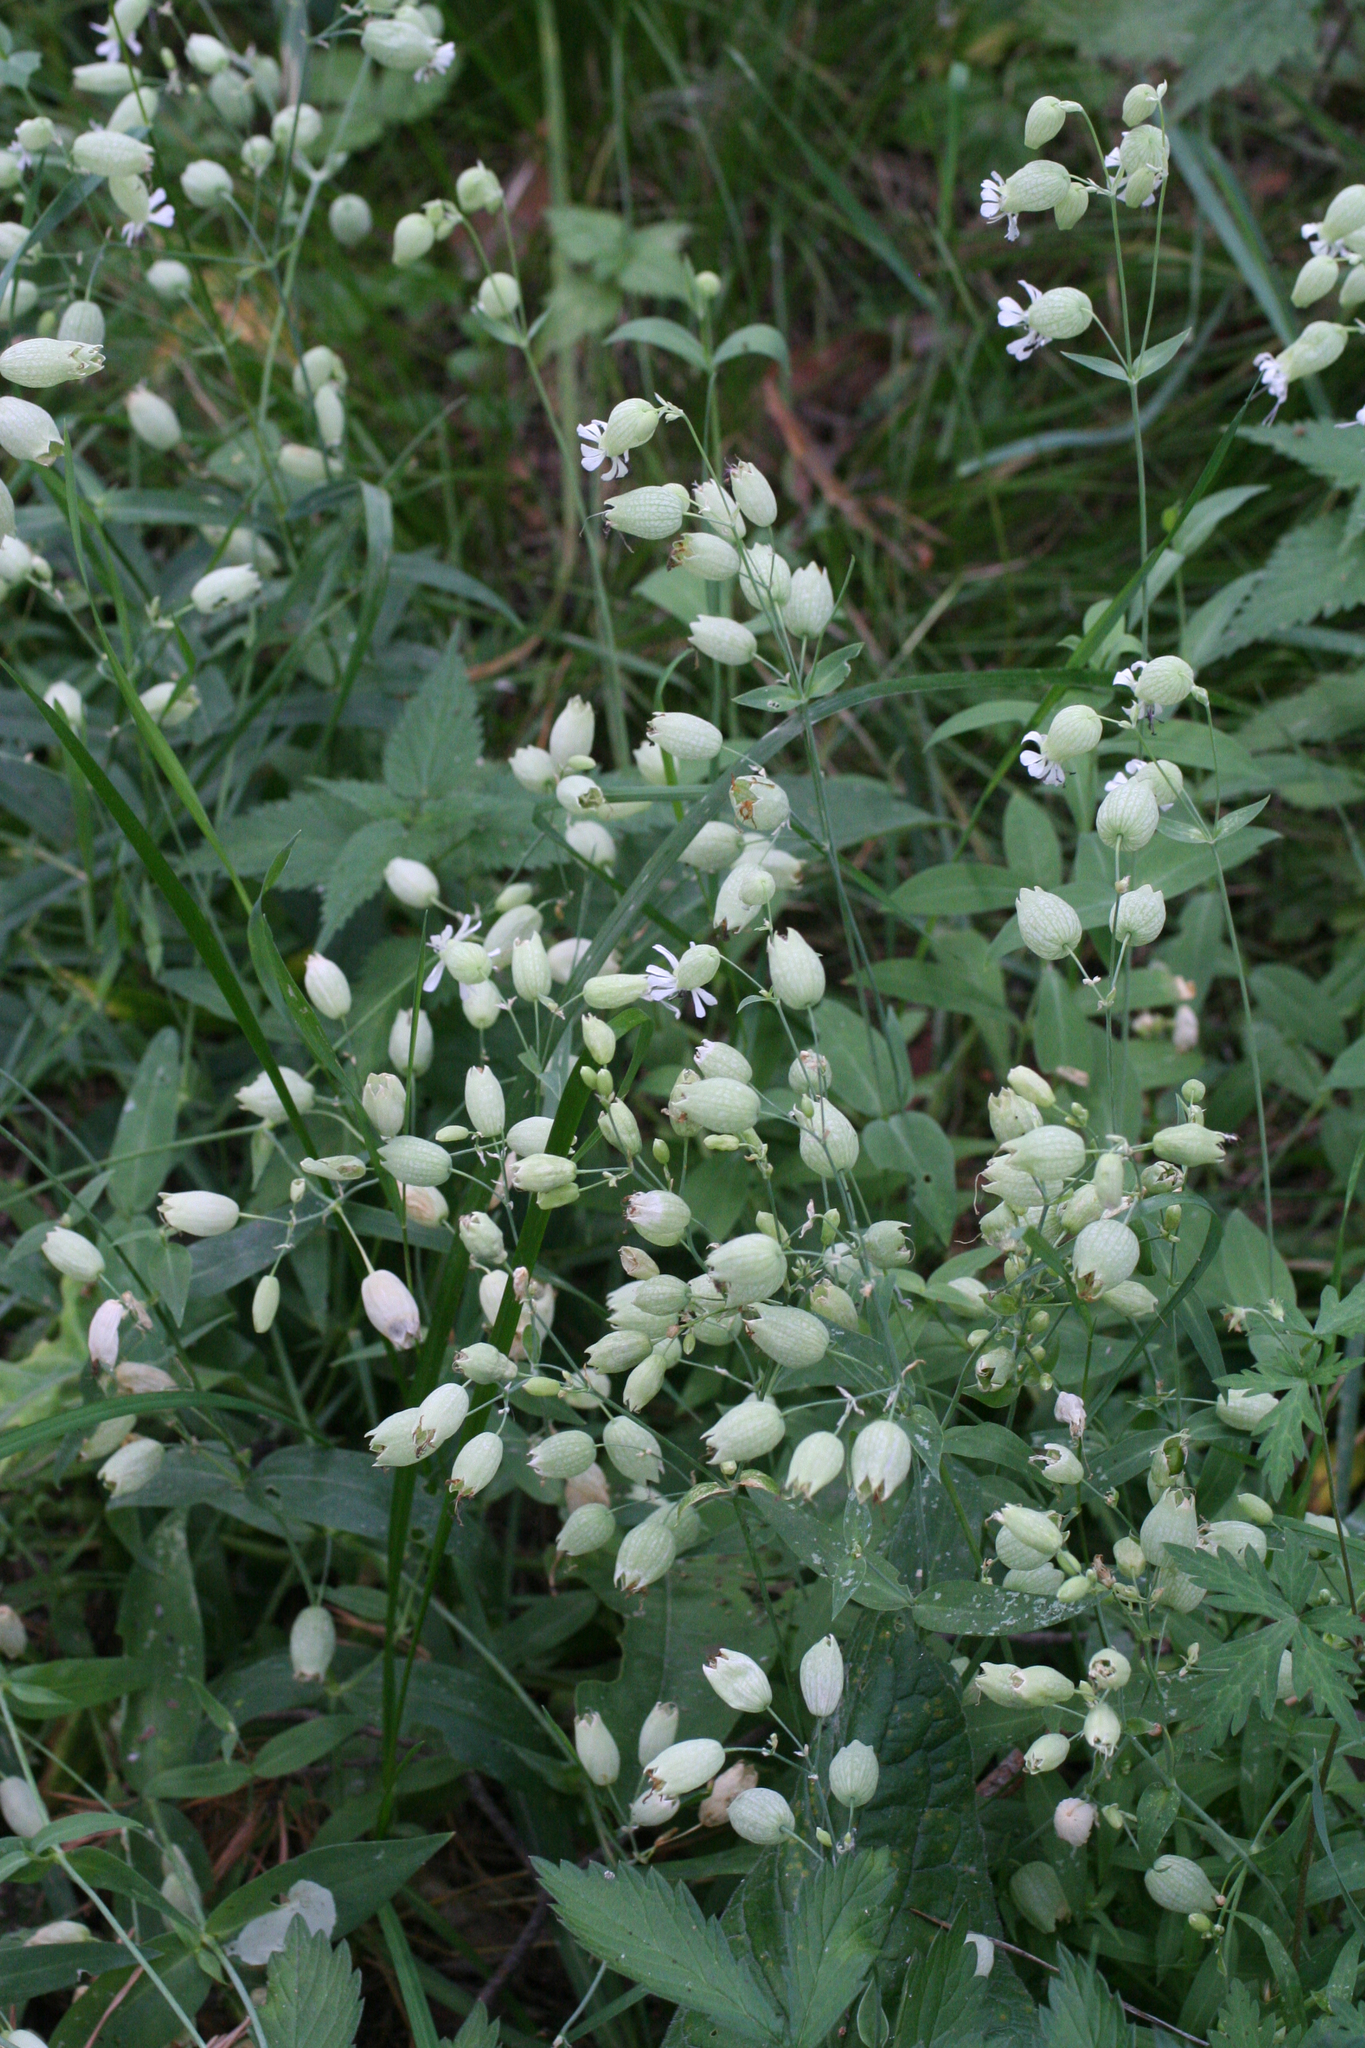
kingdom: Plantae
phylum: Tracheophyta
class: Magnoliopsida
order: Caryophyllales
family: Caryophyllaceae
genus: Silene
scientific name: Silene vulgaris
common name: Bladder campion
